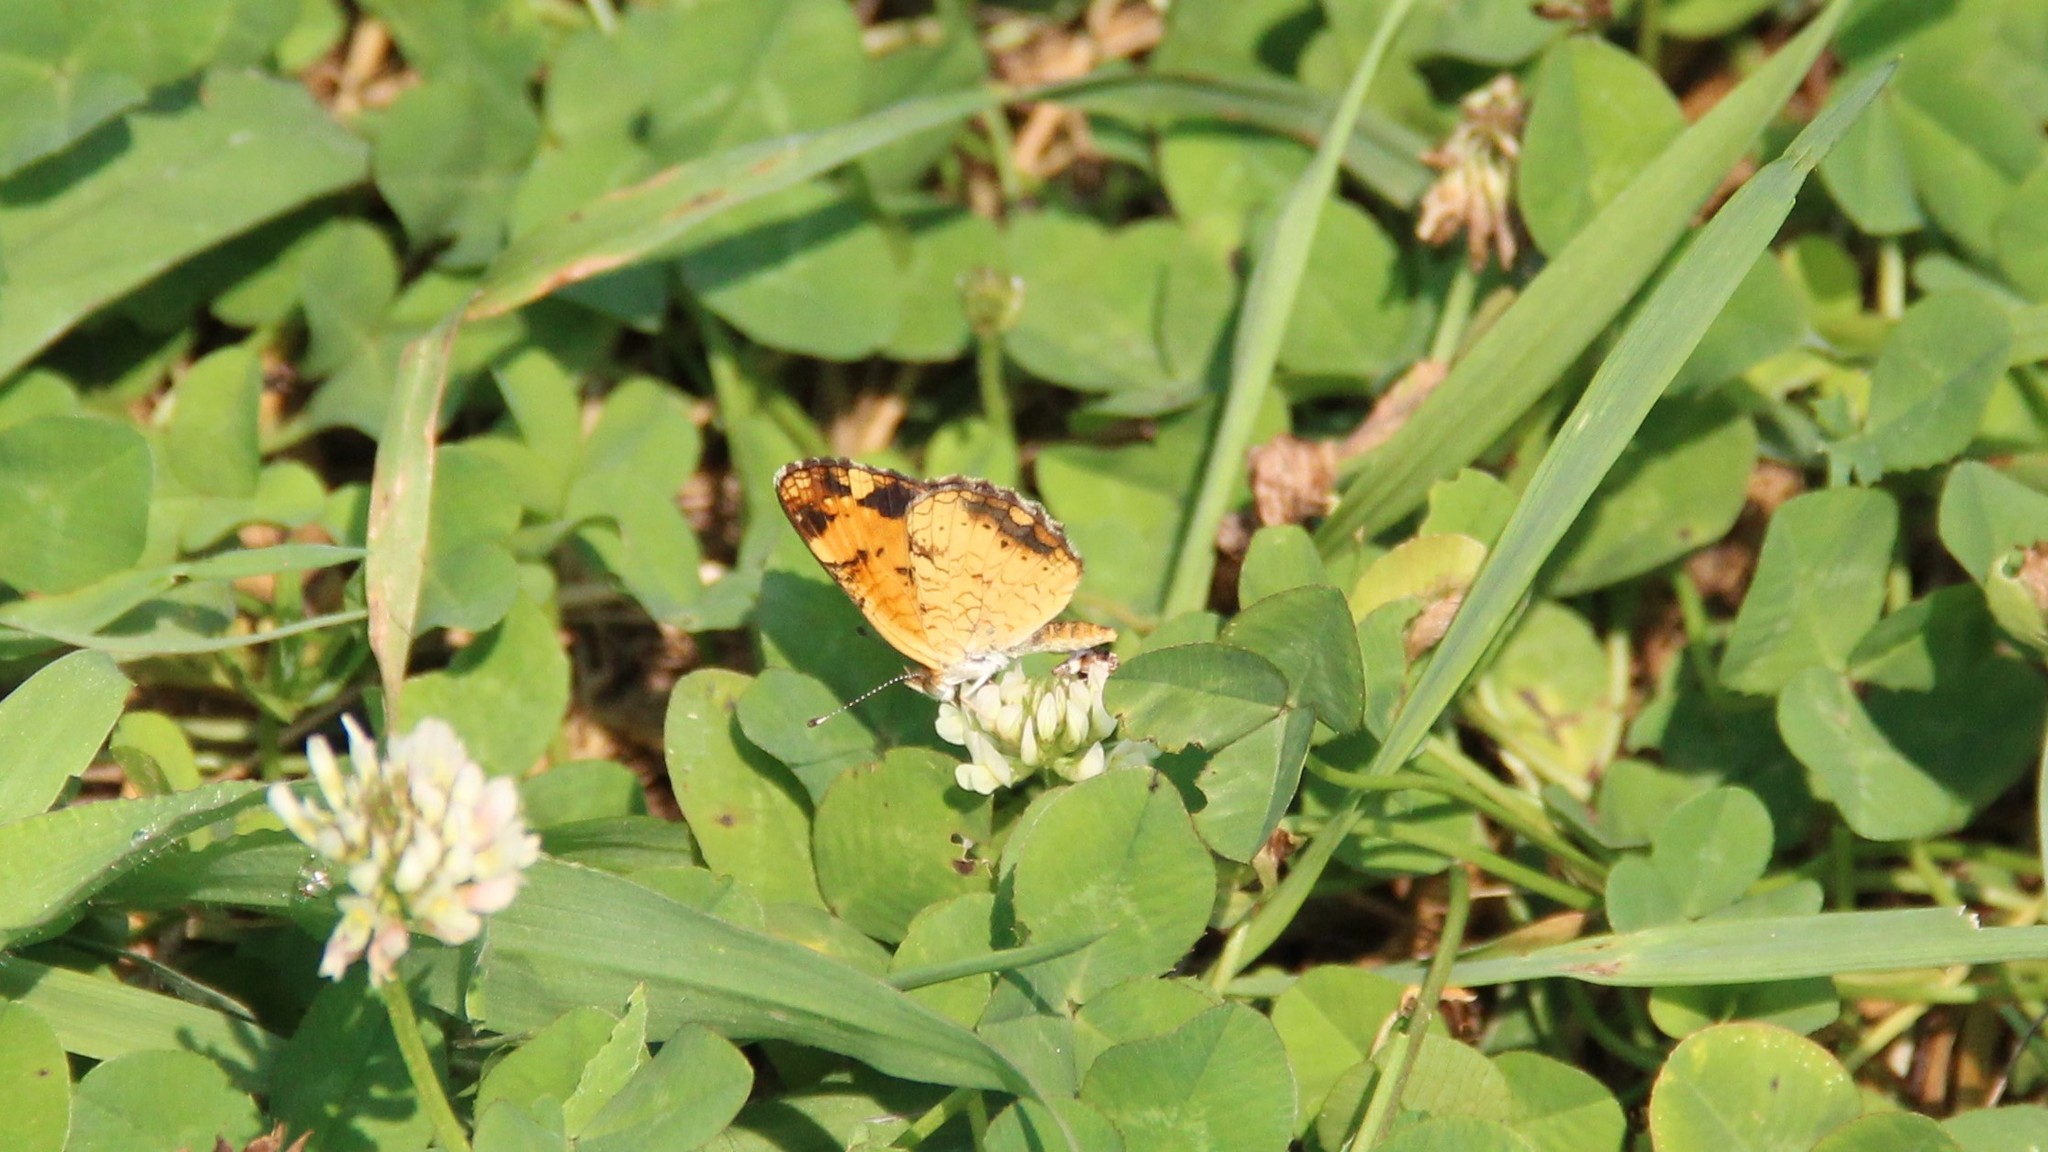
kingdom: Animalia
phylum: Arthropoda
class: Insecta
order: Lepidoptera
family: Nymphalidae
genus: Phyciodes
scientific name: Phyciodes tharos
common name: Pearl crescent
